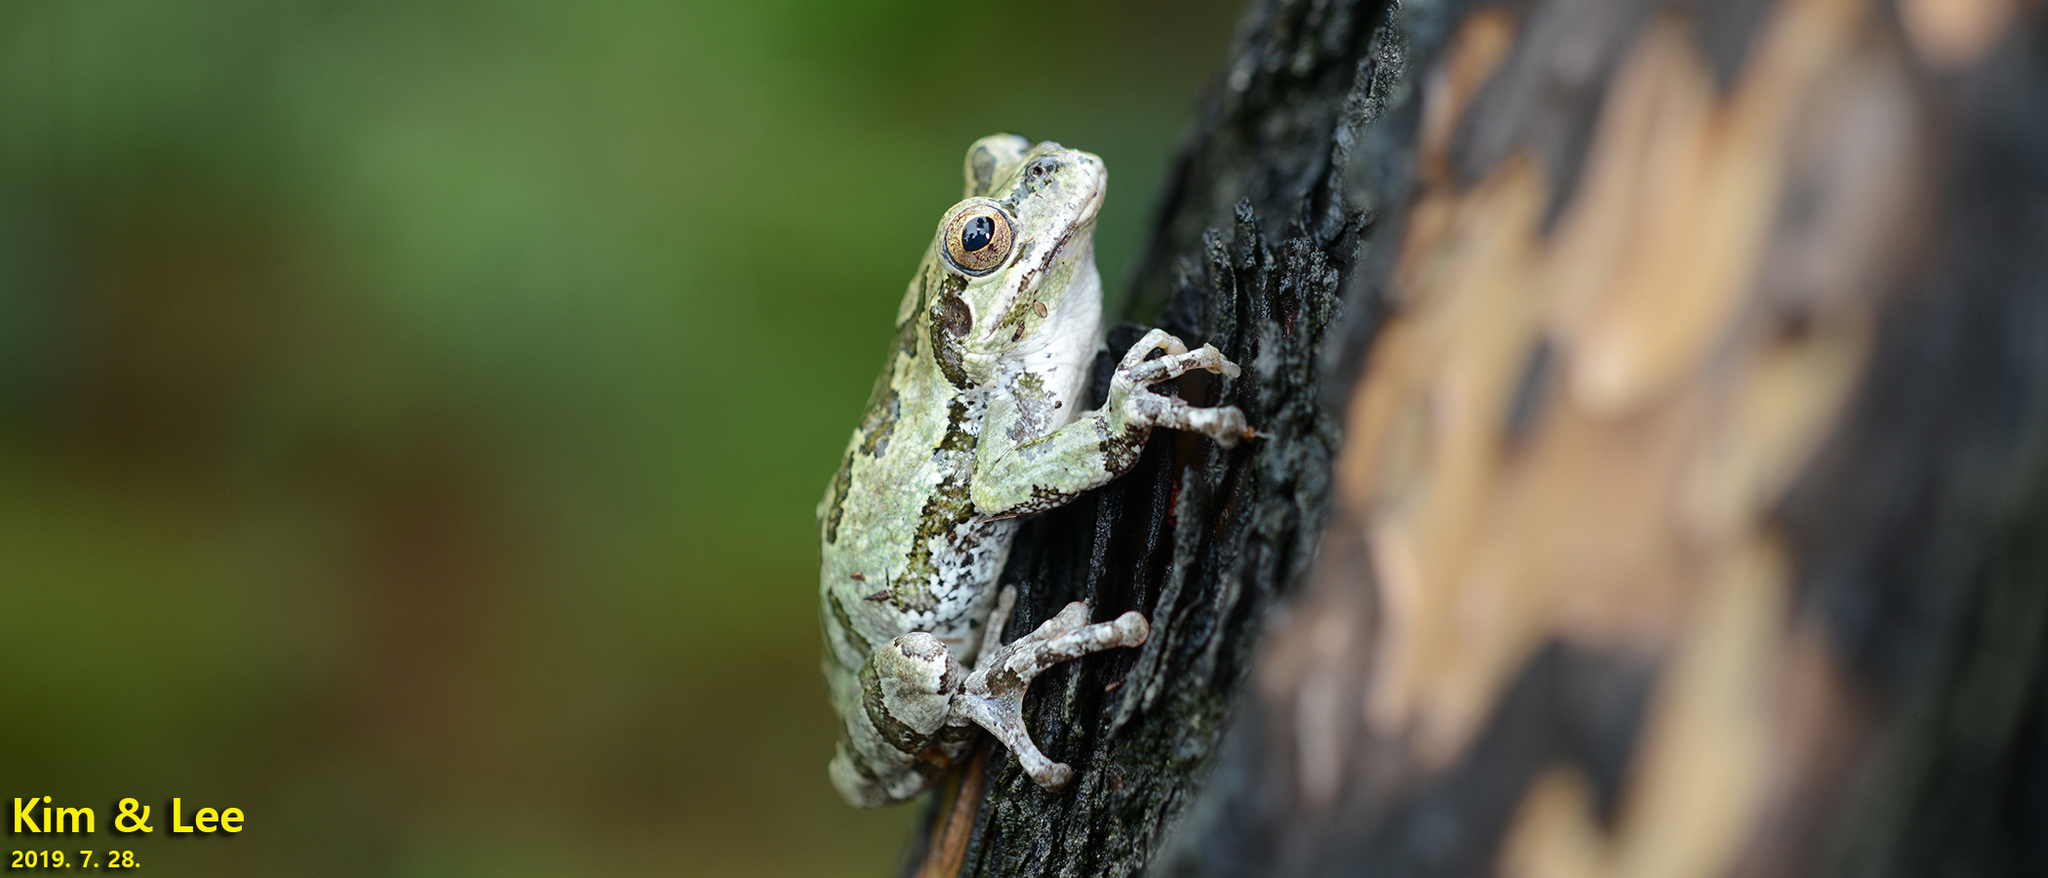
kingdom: Animalia
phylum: Chordata
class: Amphibia
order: Anura
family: Hylidae
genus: Dryophytes
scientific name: Dryophytes japonicus
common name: Japanese treefrog
